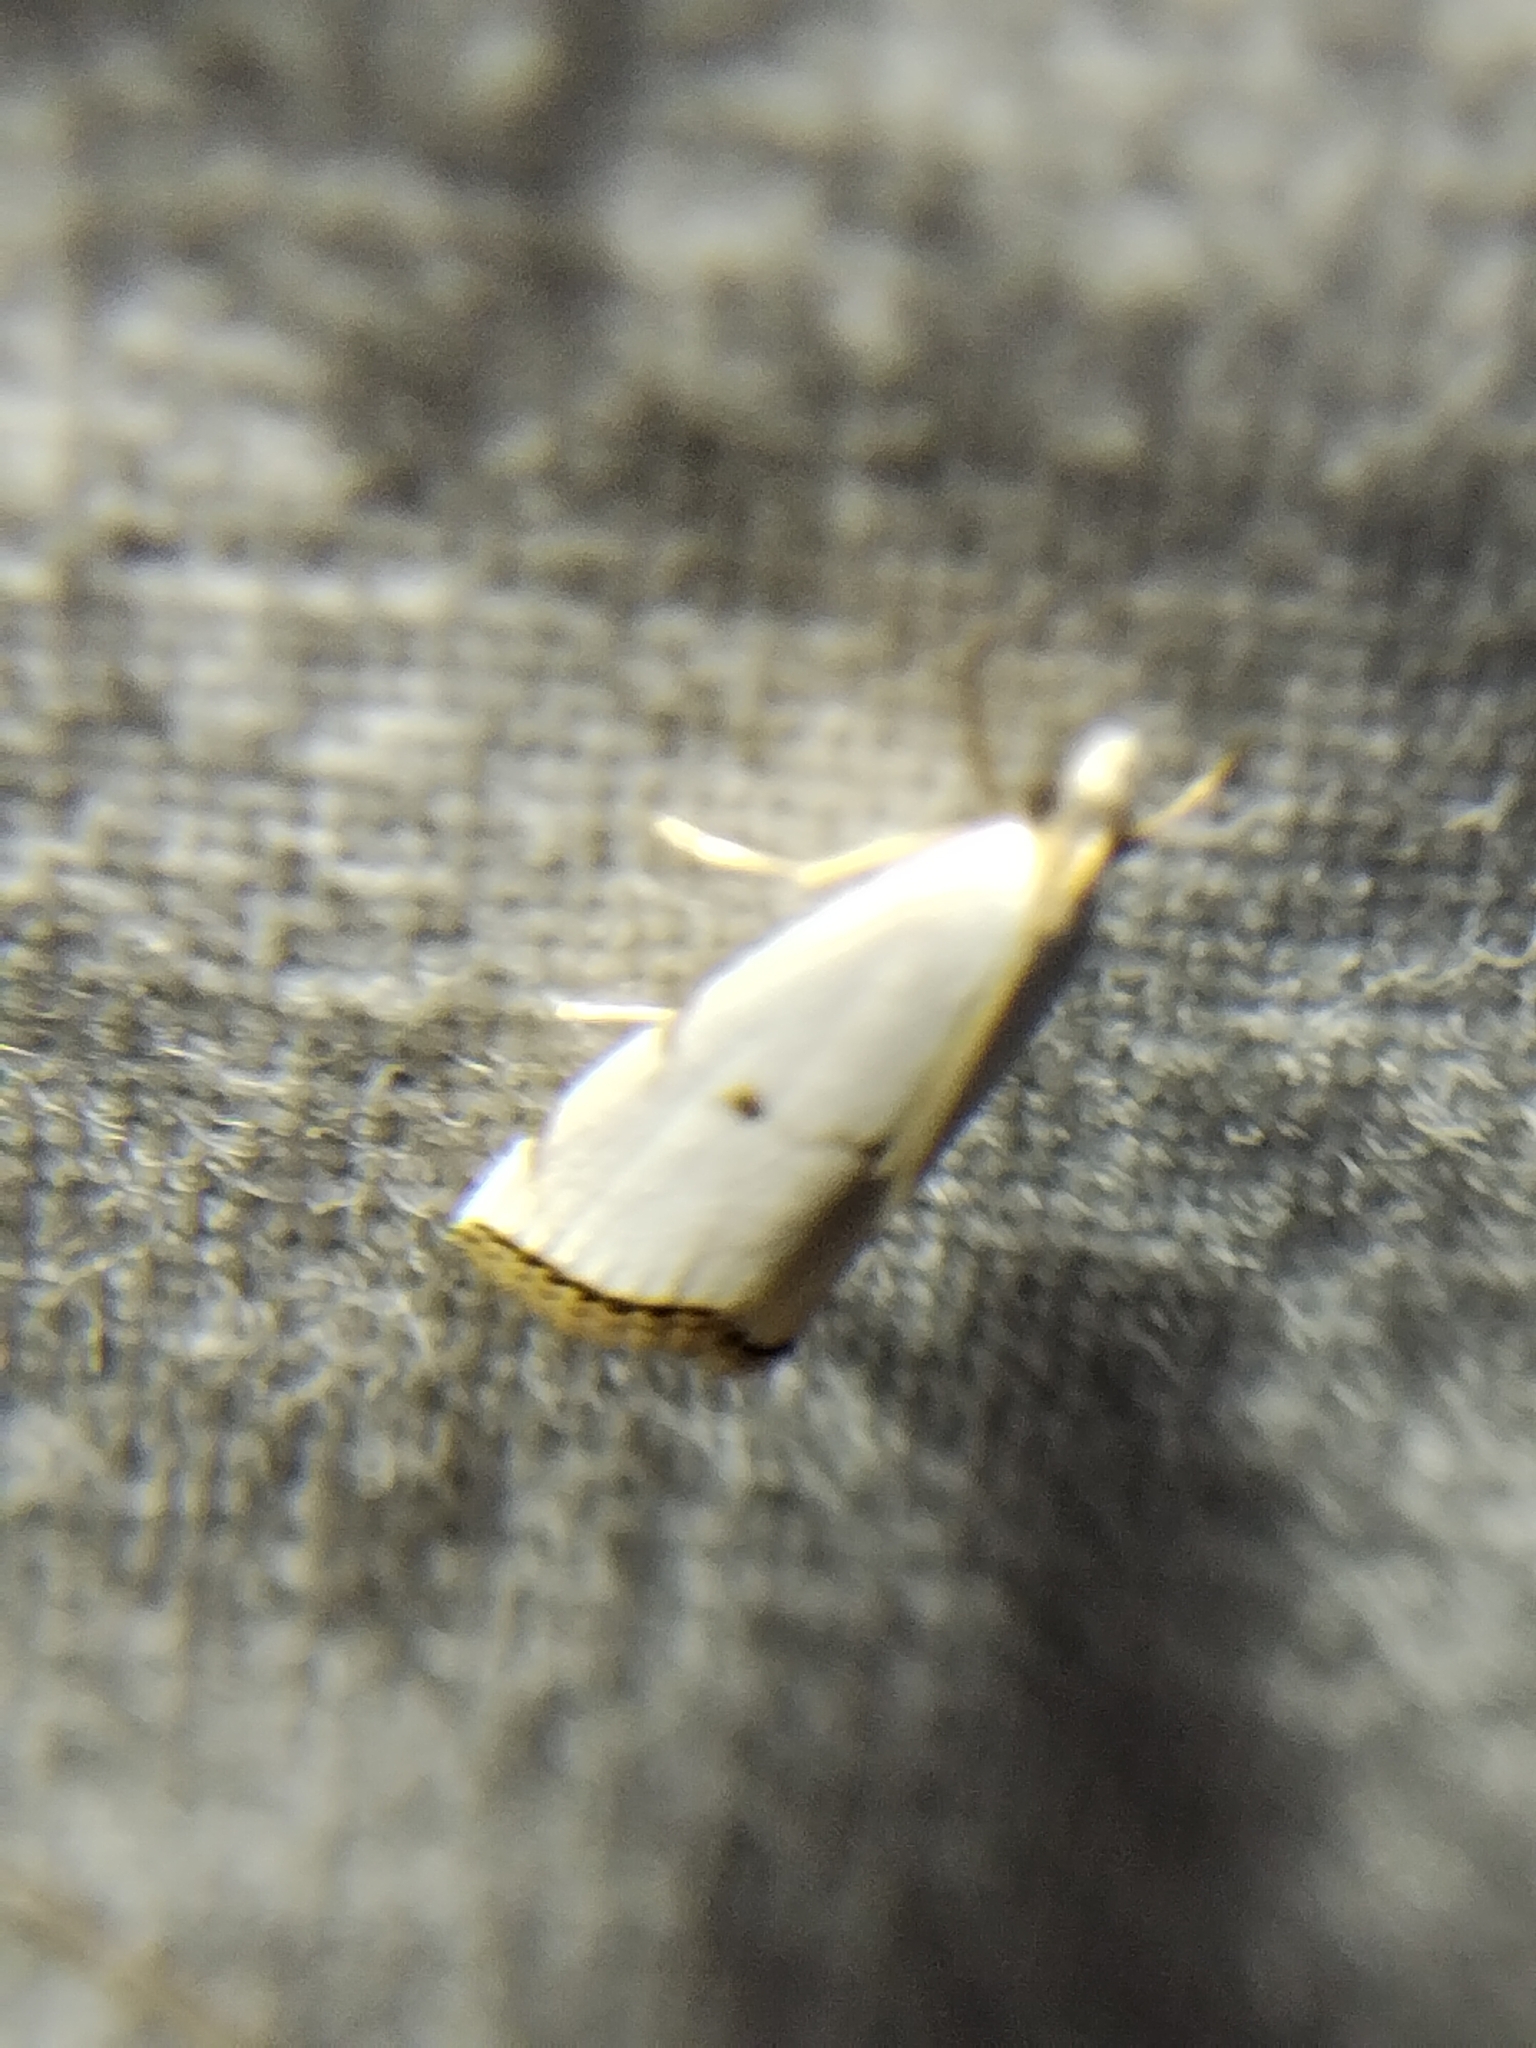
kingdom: Animalia
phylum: Arthropoda
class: Insecta
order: Lepidoptera
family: Crambidae
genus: Argyria
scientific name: Argyria pusillalis
